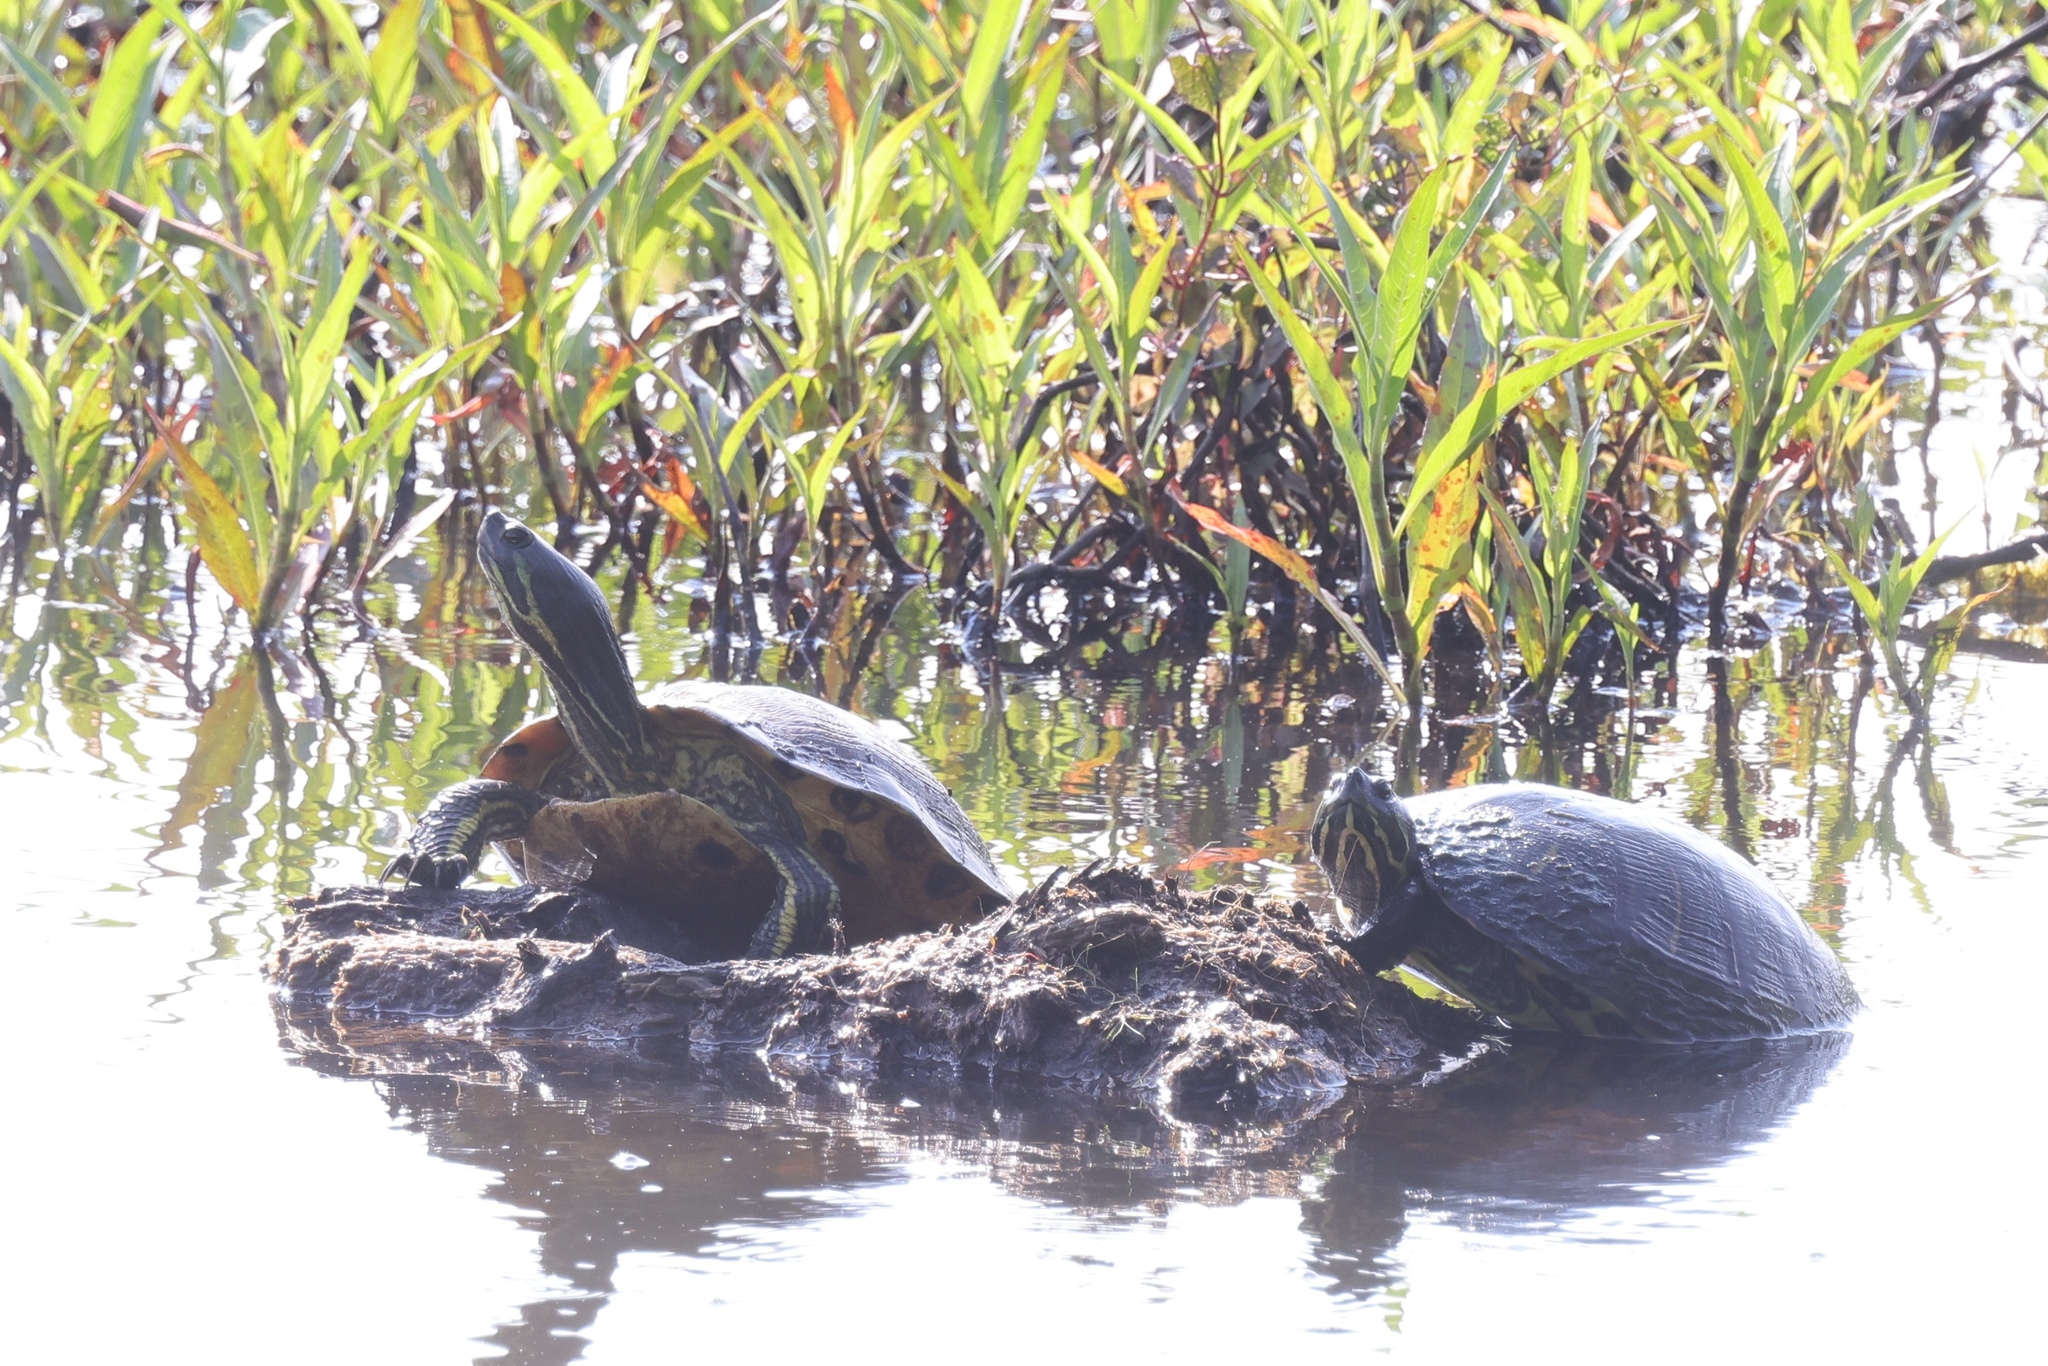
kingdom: Animalia
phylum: Chordata
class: Testudines
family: Emydidae
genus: Trachemys
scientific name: Trachemys scripta
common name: Slider
